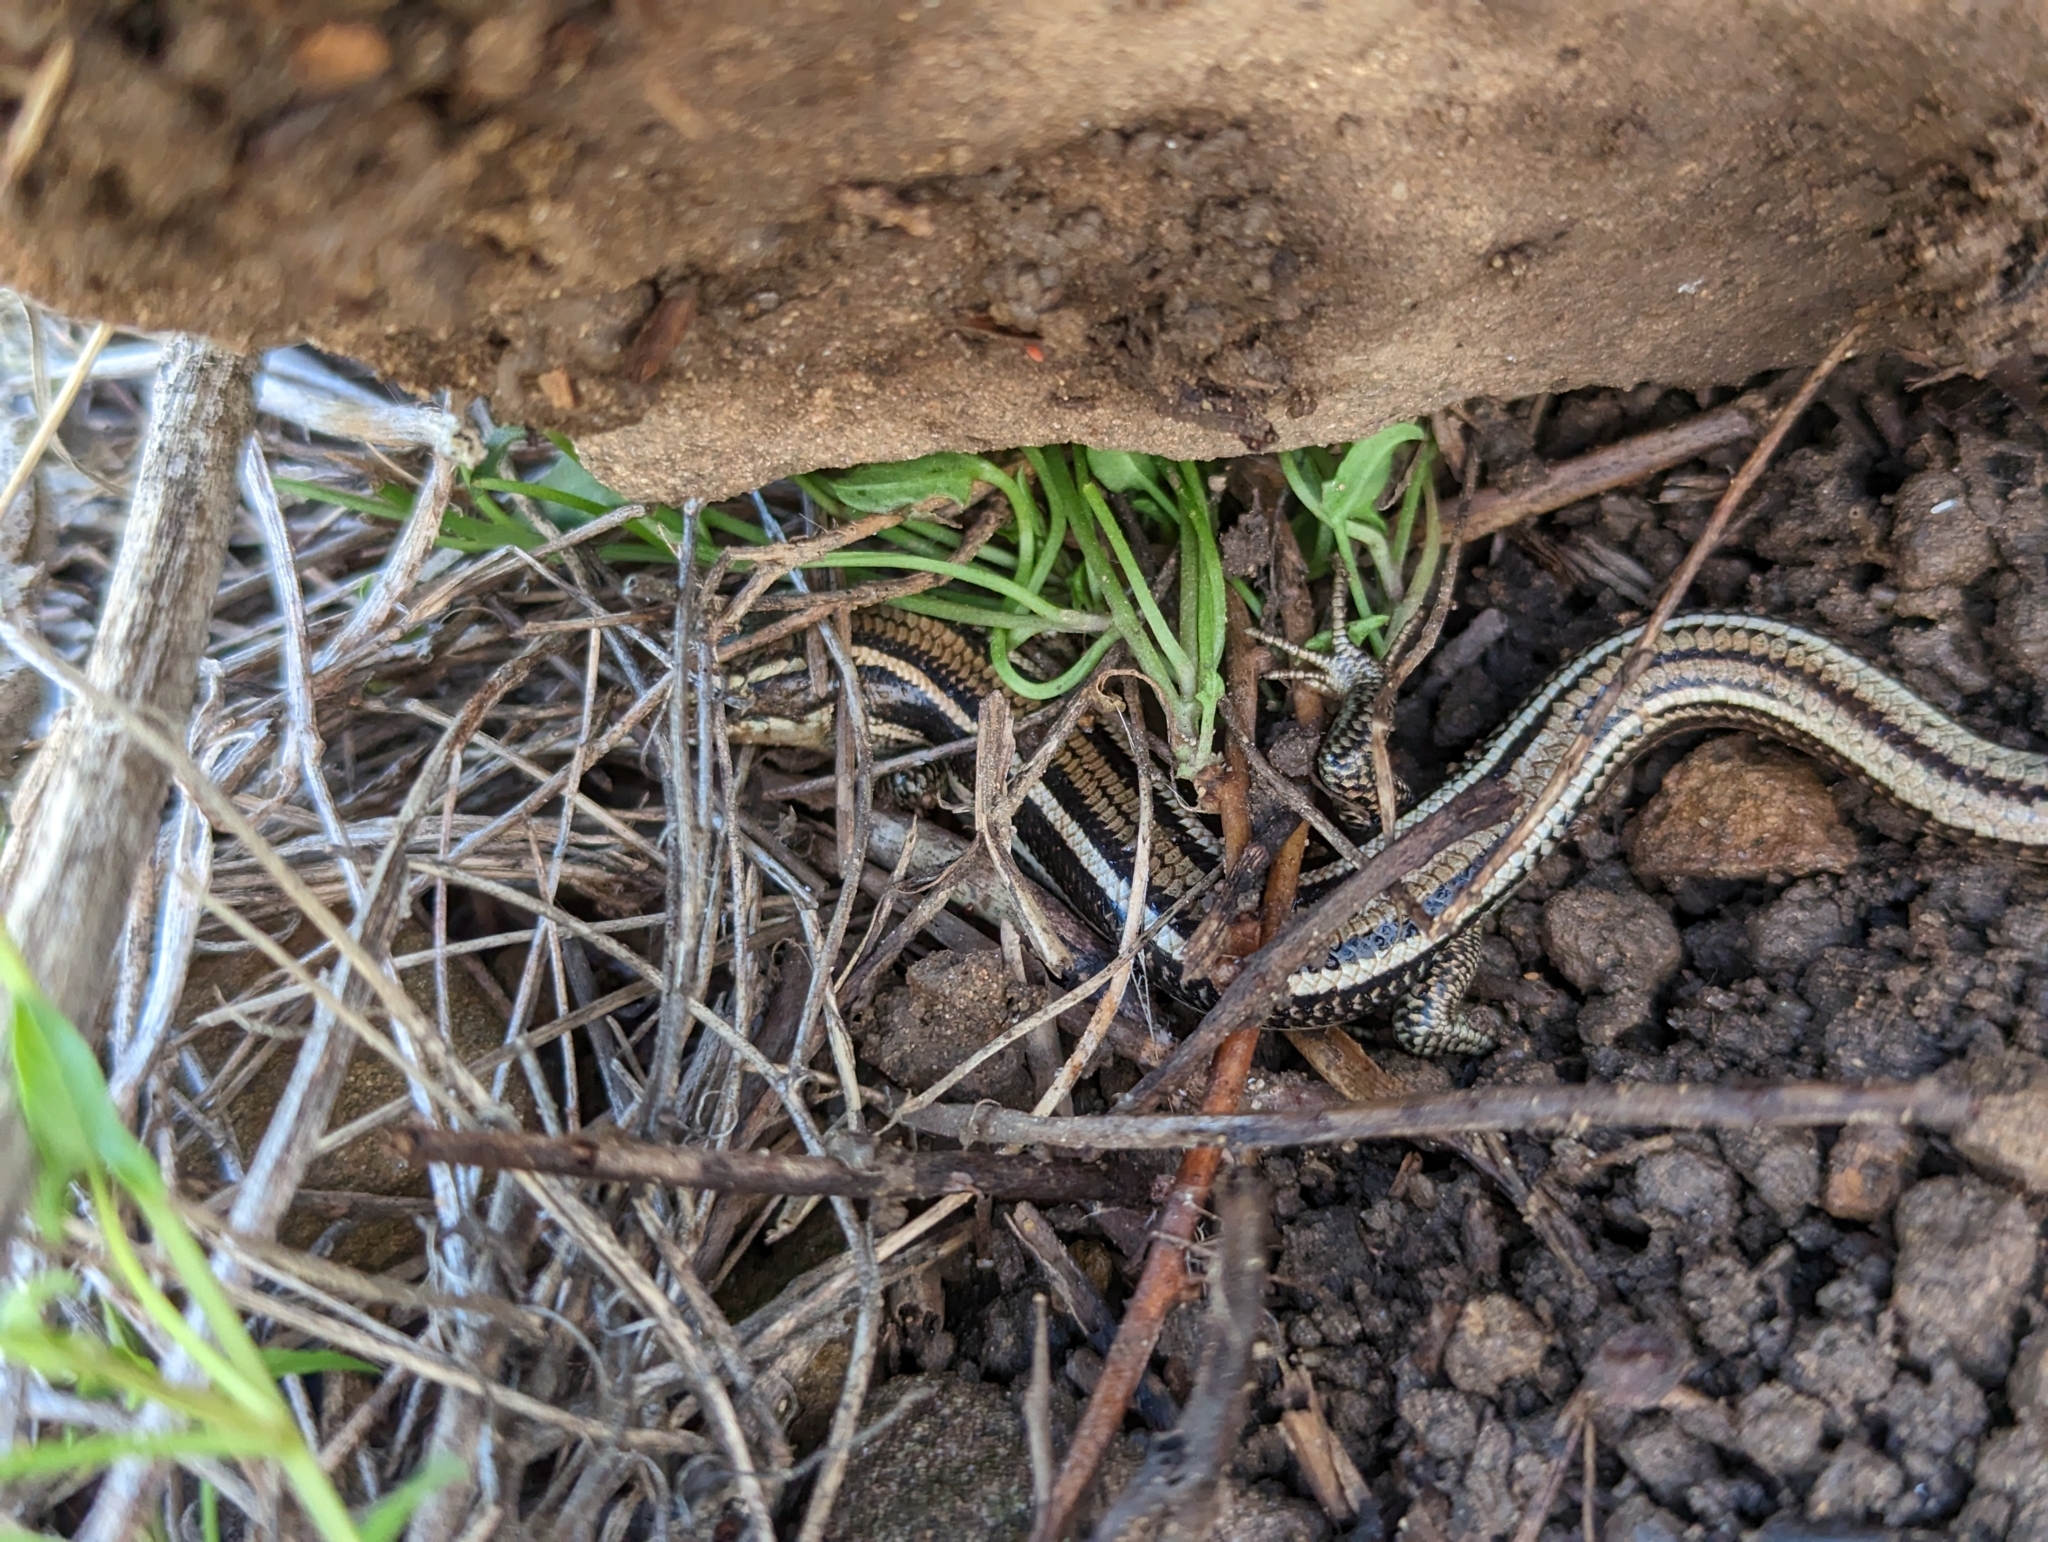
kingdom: Animalia
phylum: Chordata
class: Squamata
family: Scincidae
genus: Plestiodon
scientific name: Plestiodon skiltonianus
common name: Coronado island skink [interparietalis]
